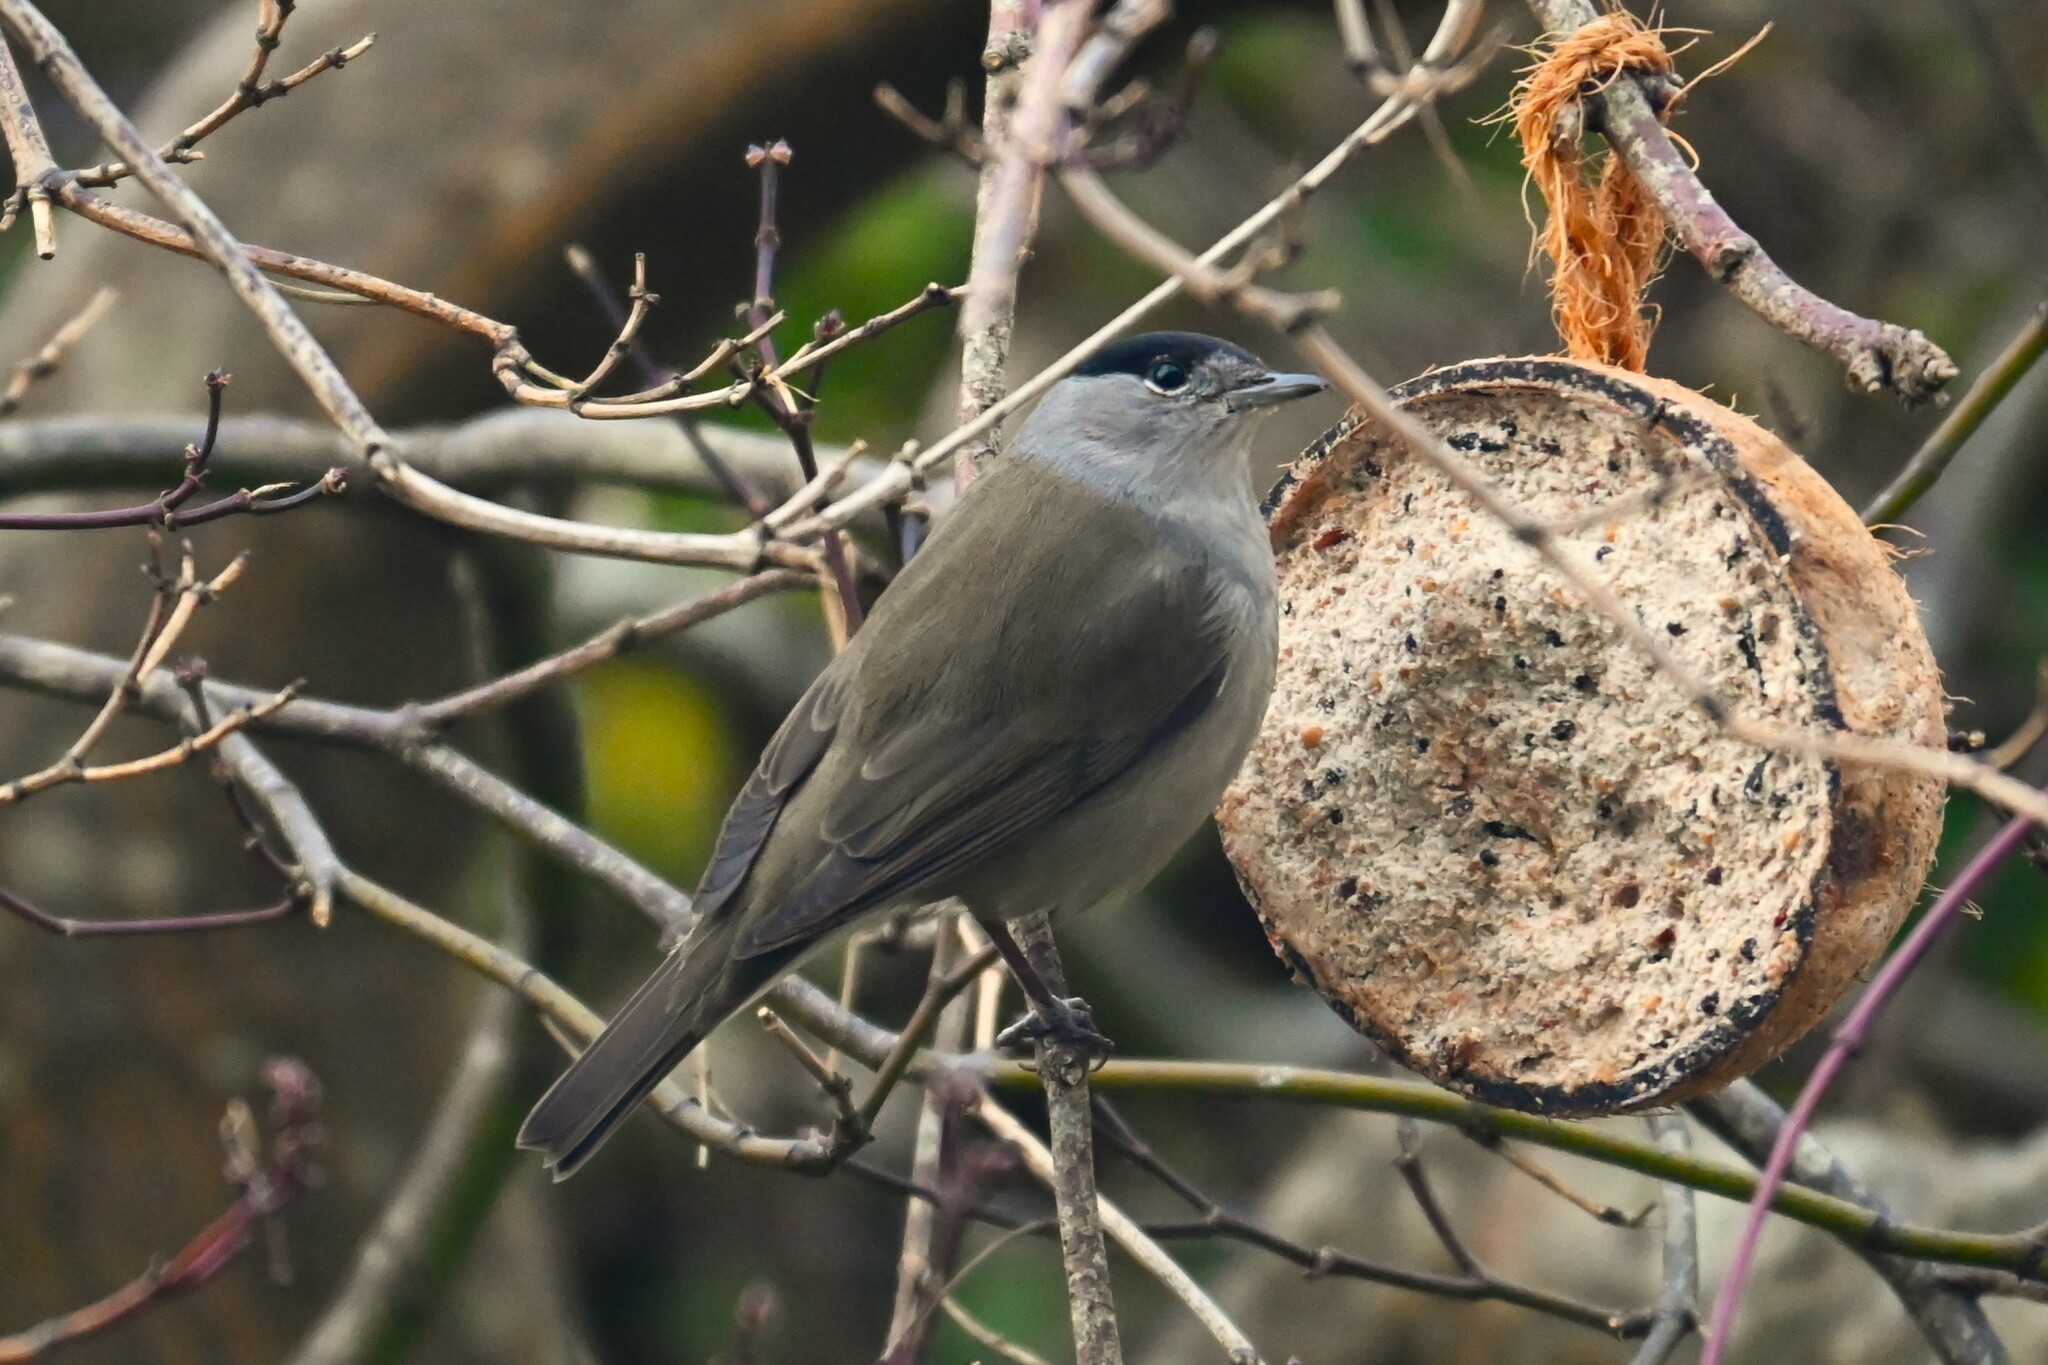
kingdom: Animalia
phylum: Chordata
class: Aves
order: Passeriformes
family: Sylviidae
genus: Sylvia
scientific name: Sylvia atricapilla
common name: Eurasian blackcap
